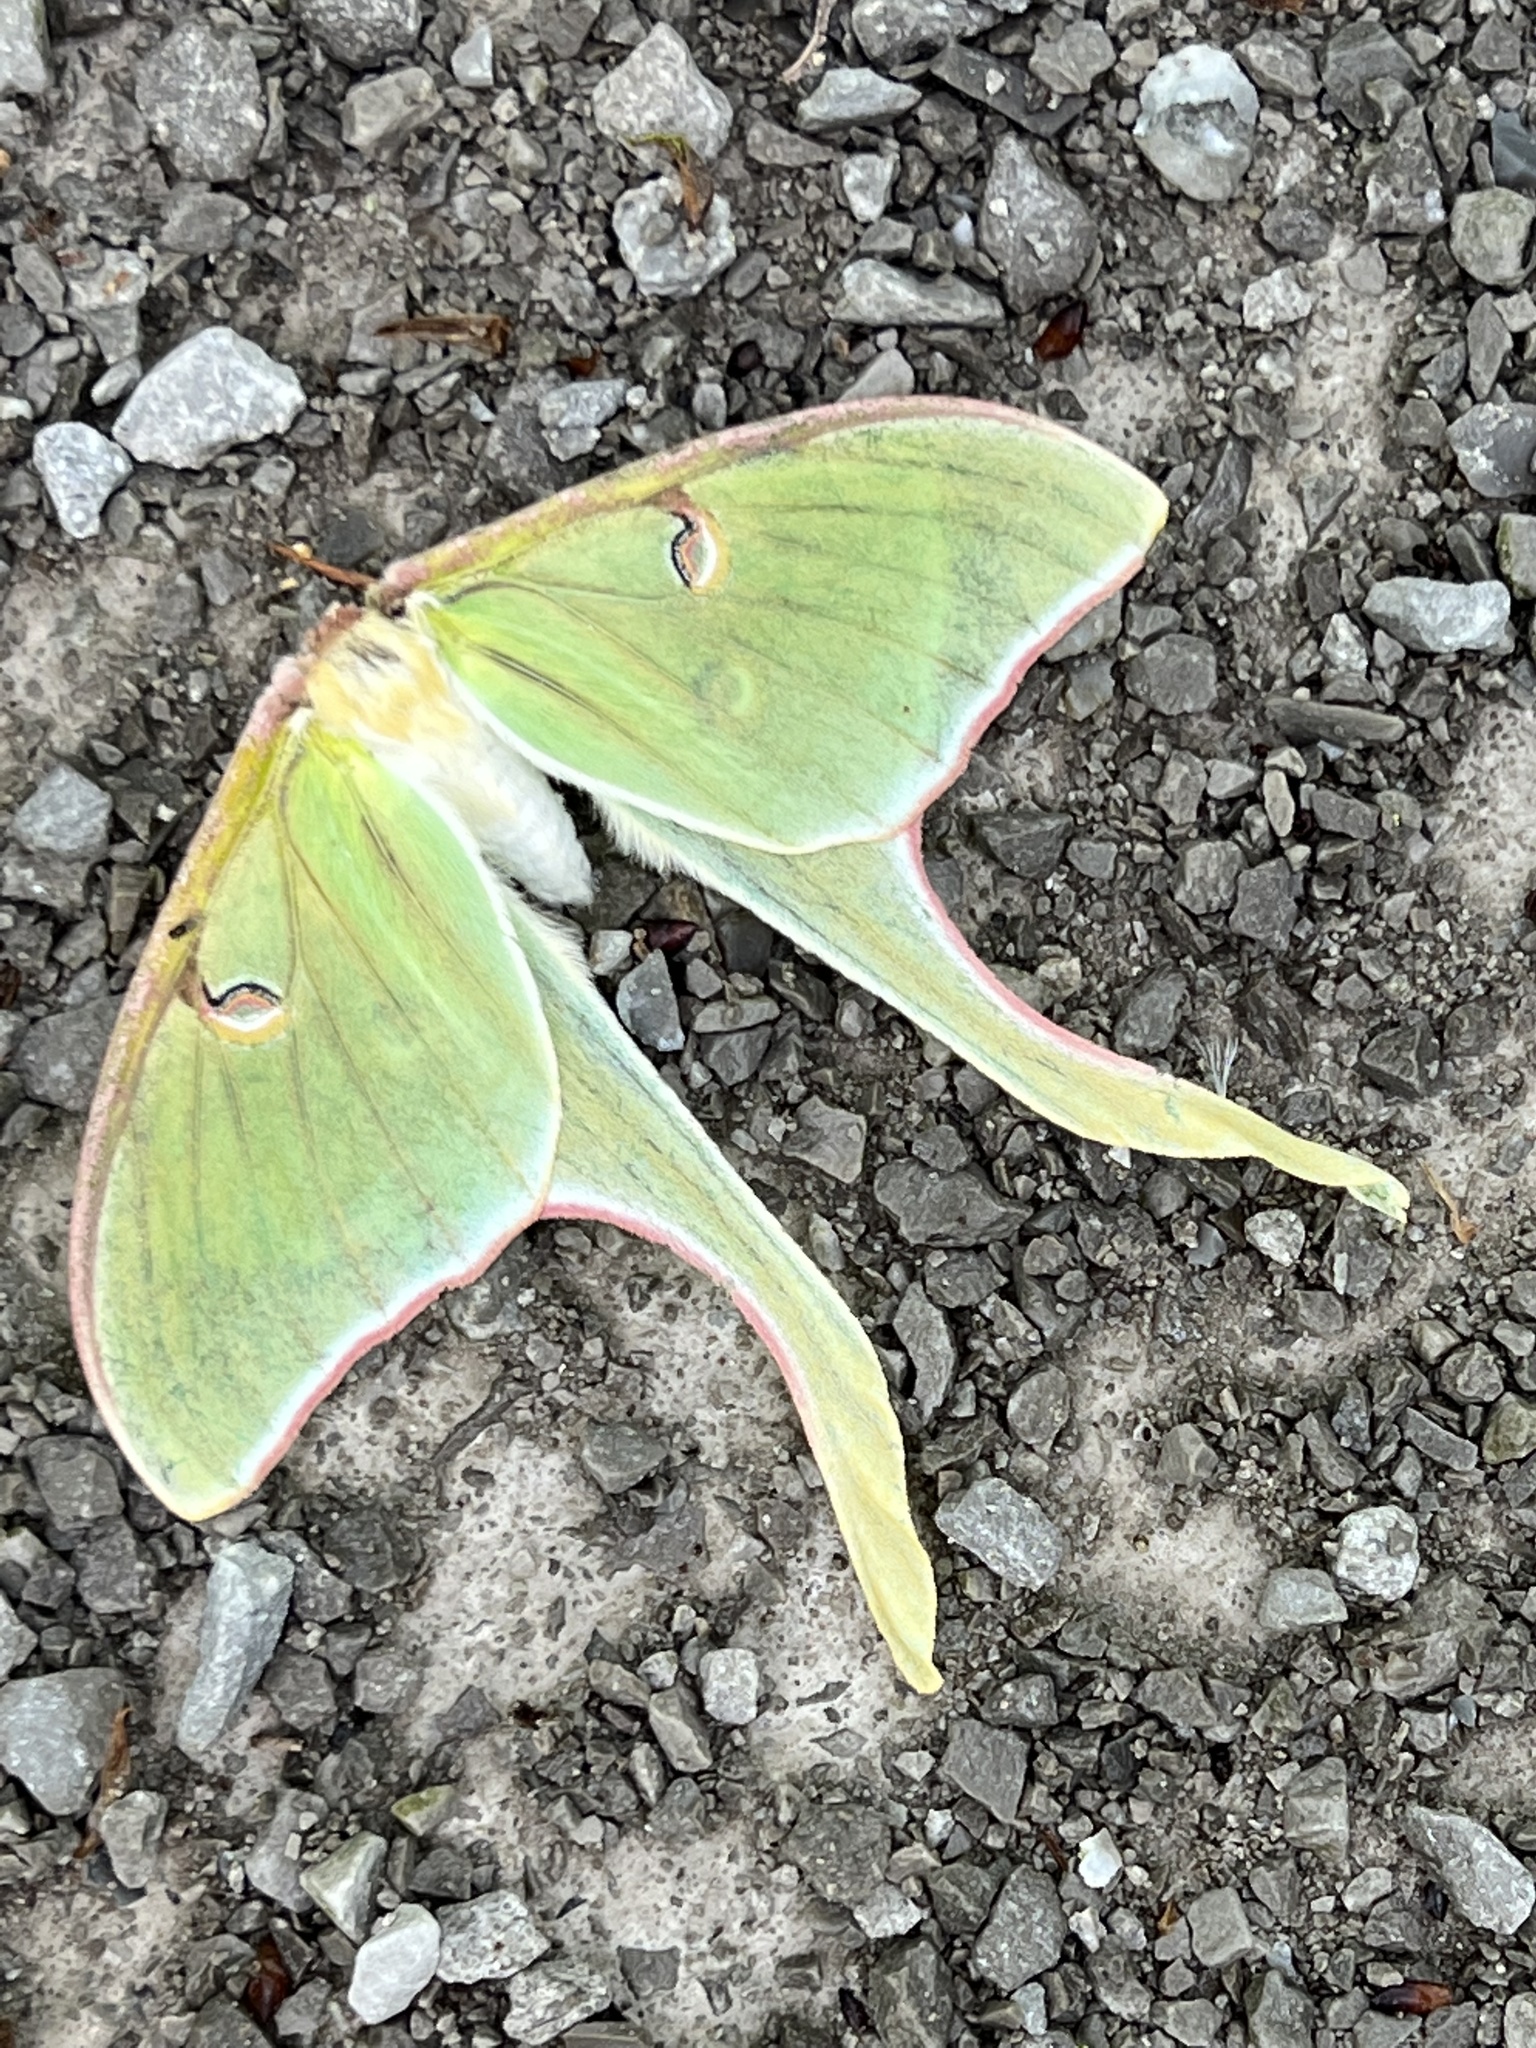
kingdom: Animalia
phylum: Arthropoda
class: Insecta
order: Lepidoptera
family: Saturniidae
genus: Actias
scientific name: Actias luna
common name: Luna moth
